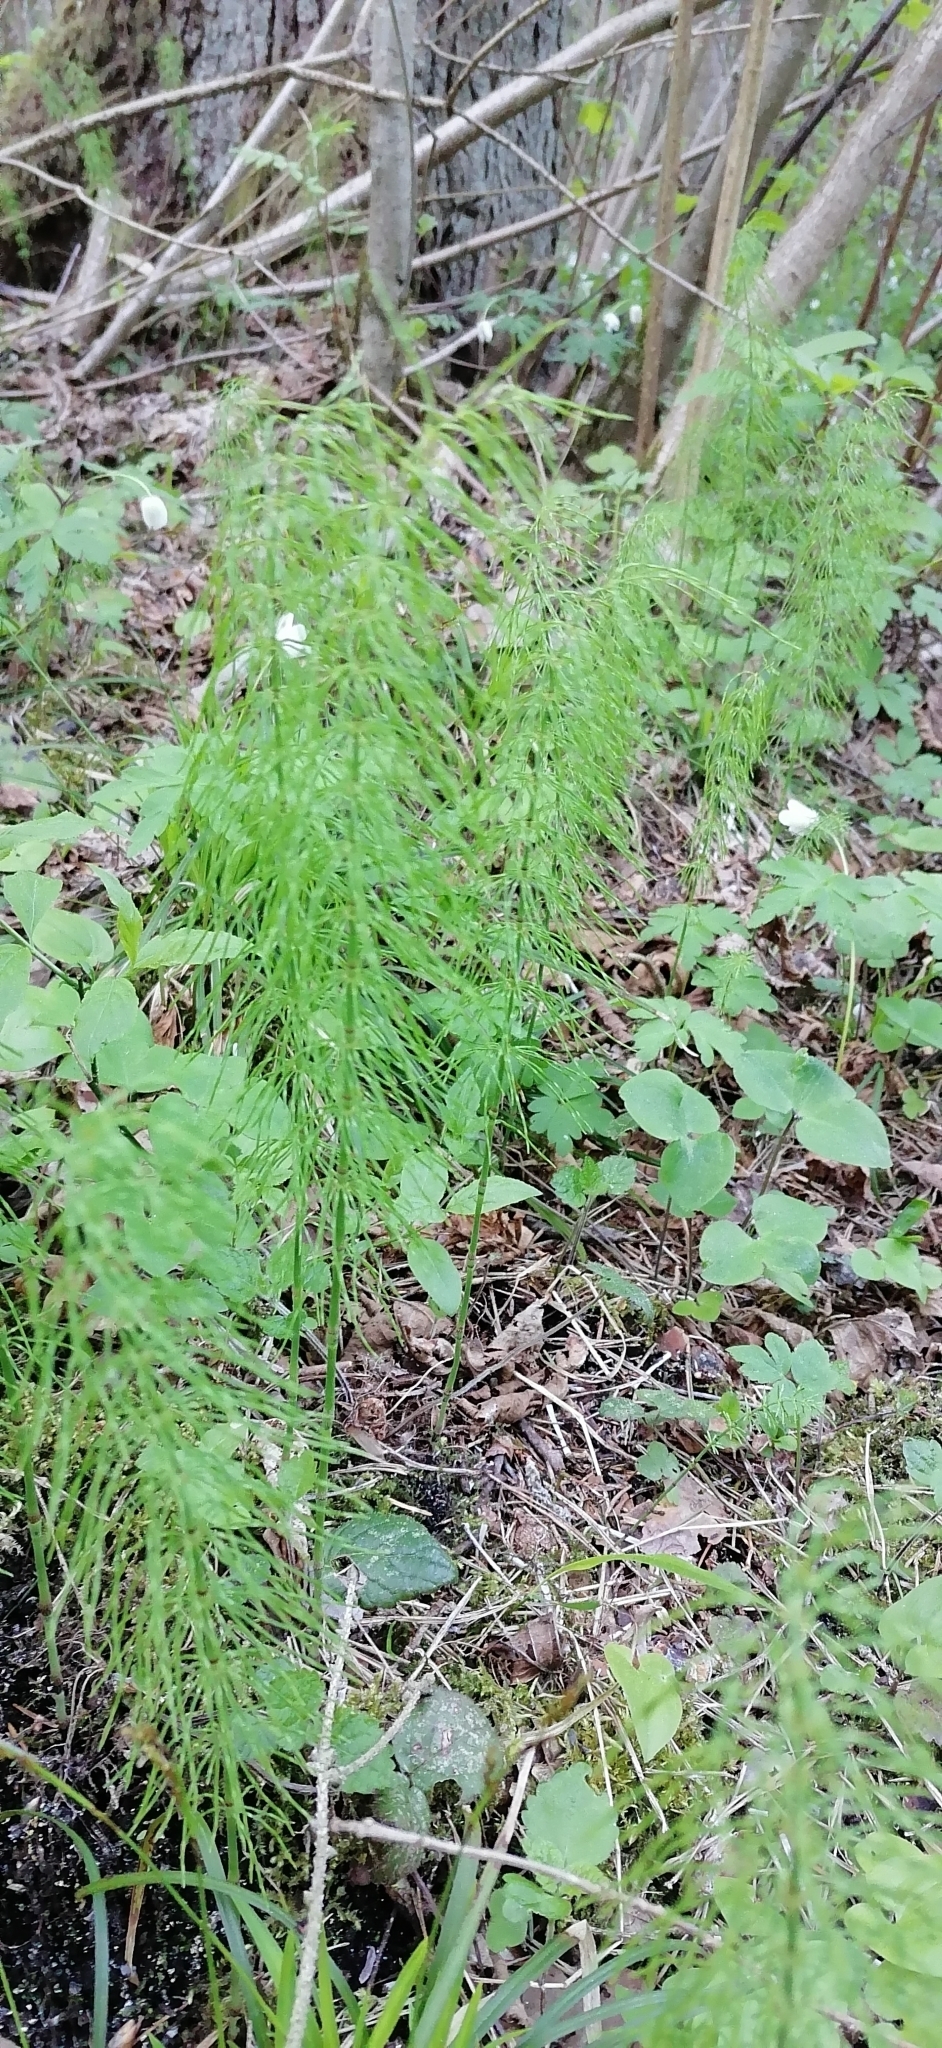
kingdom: Plantae
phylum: Tracheophyta
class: Polypodiopsida
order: Equisetales
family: Equisetaceae
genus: Equisetum
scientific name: Equisetum pratense
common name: Meadow horsetail
